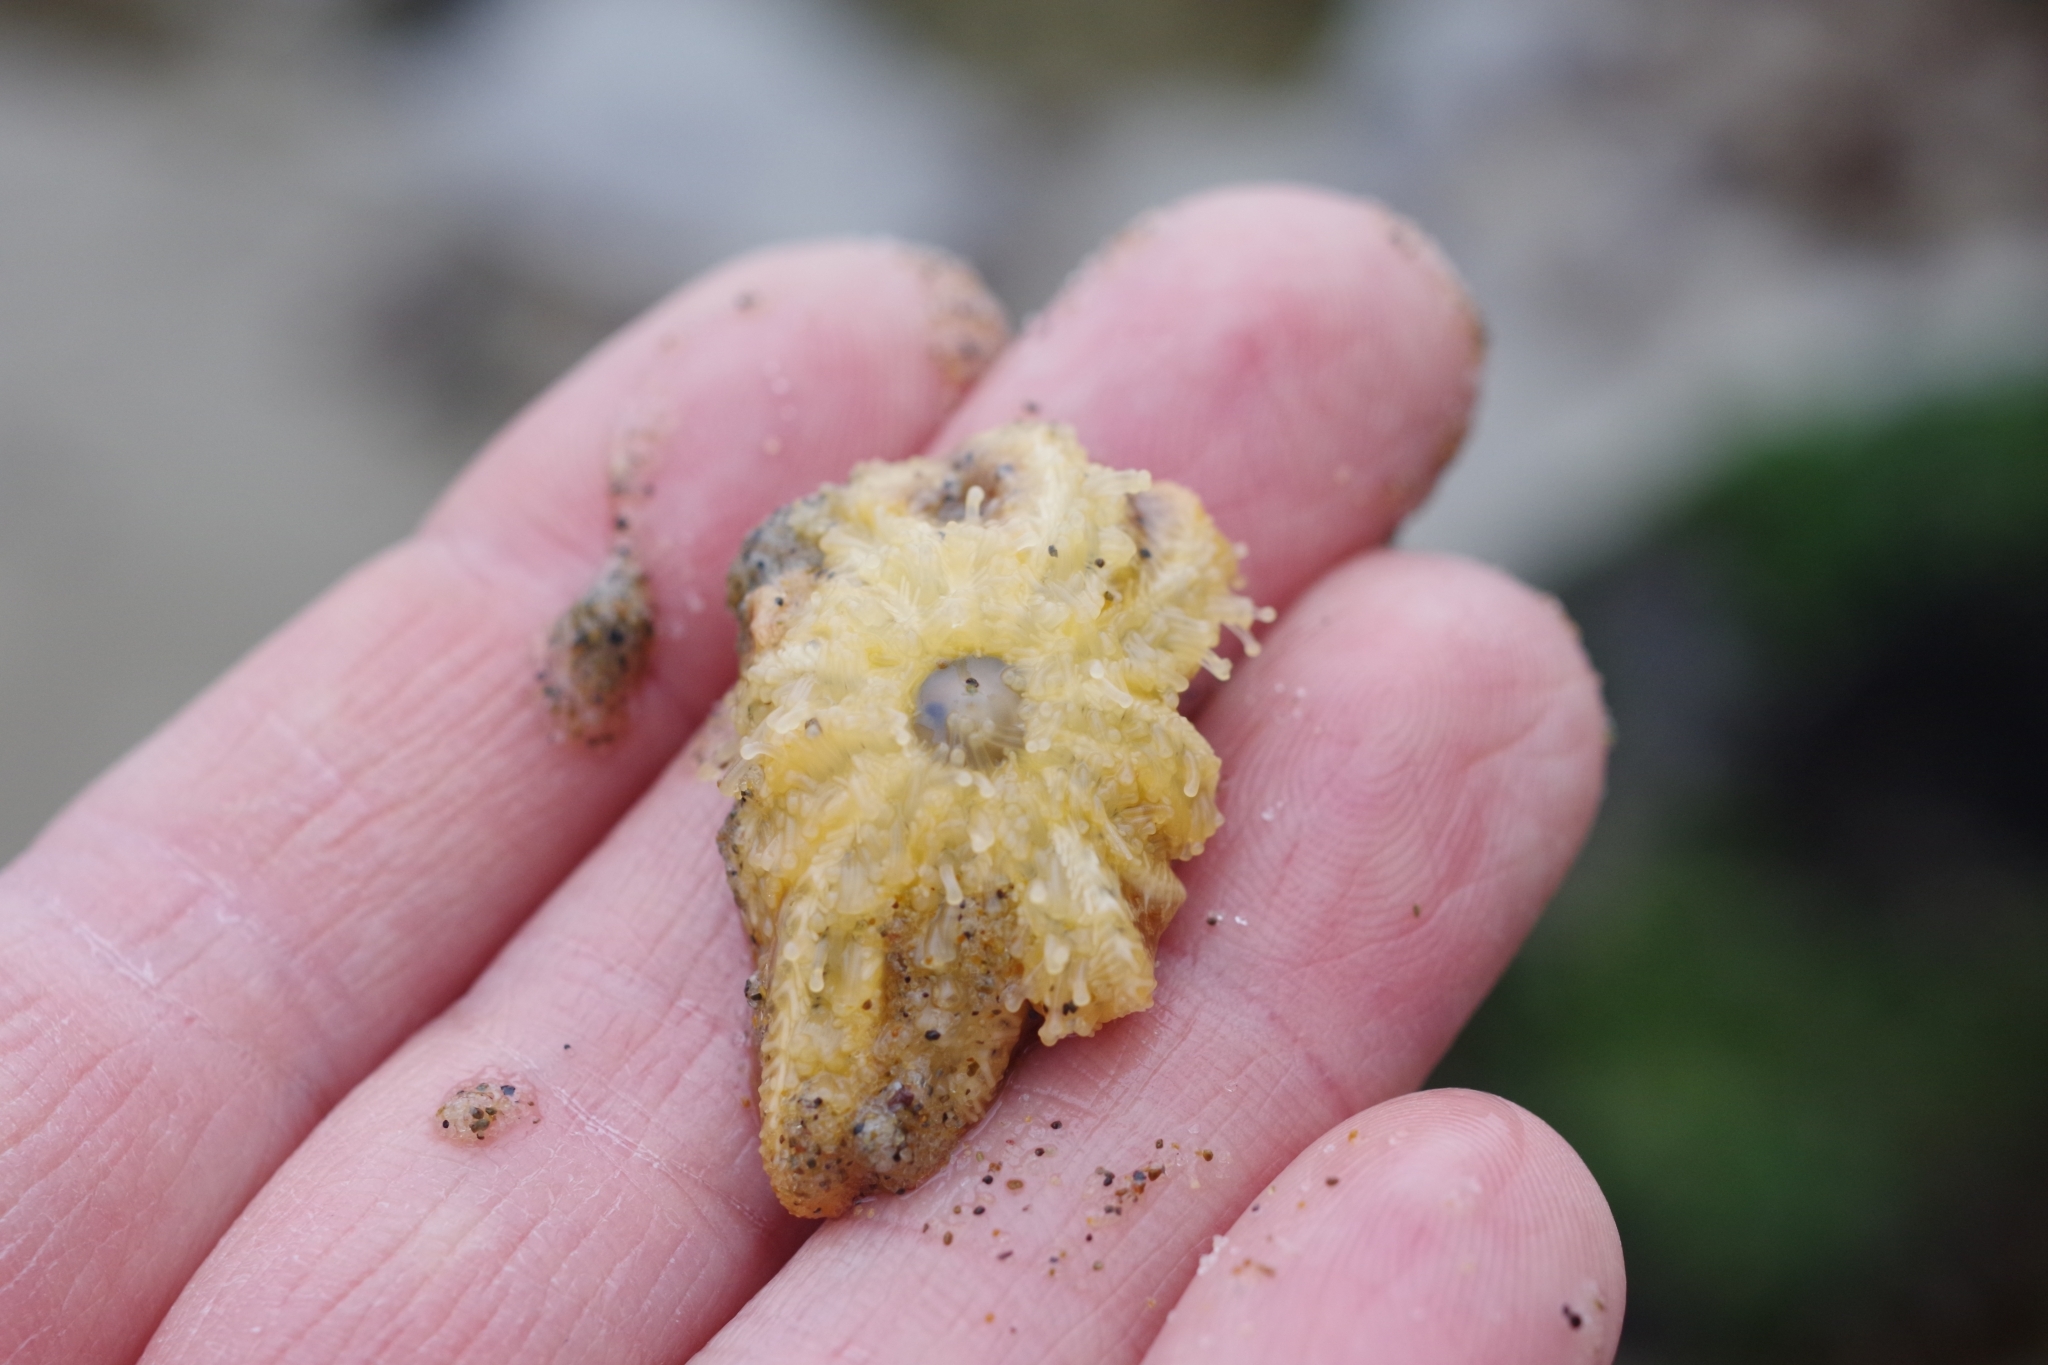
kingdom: Animalia
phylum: Echinodermata
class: Asteroidea
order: Forcipulatida
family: Asteriidae
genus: Pycnopodia
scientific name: Pycnopodia helianthoides
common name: Rag mop
